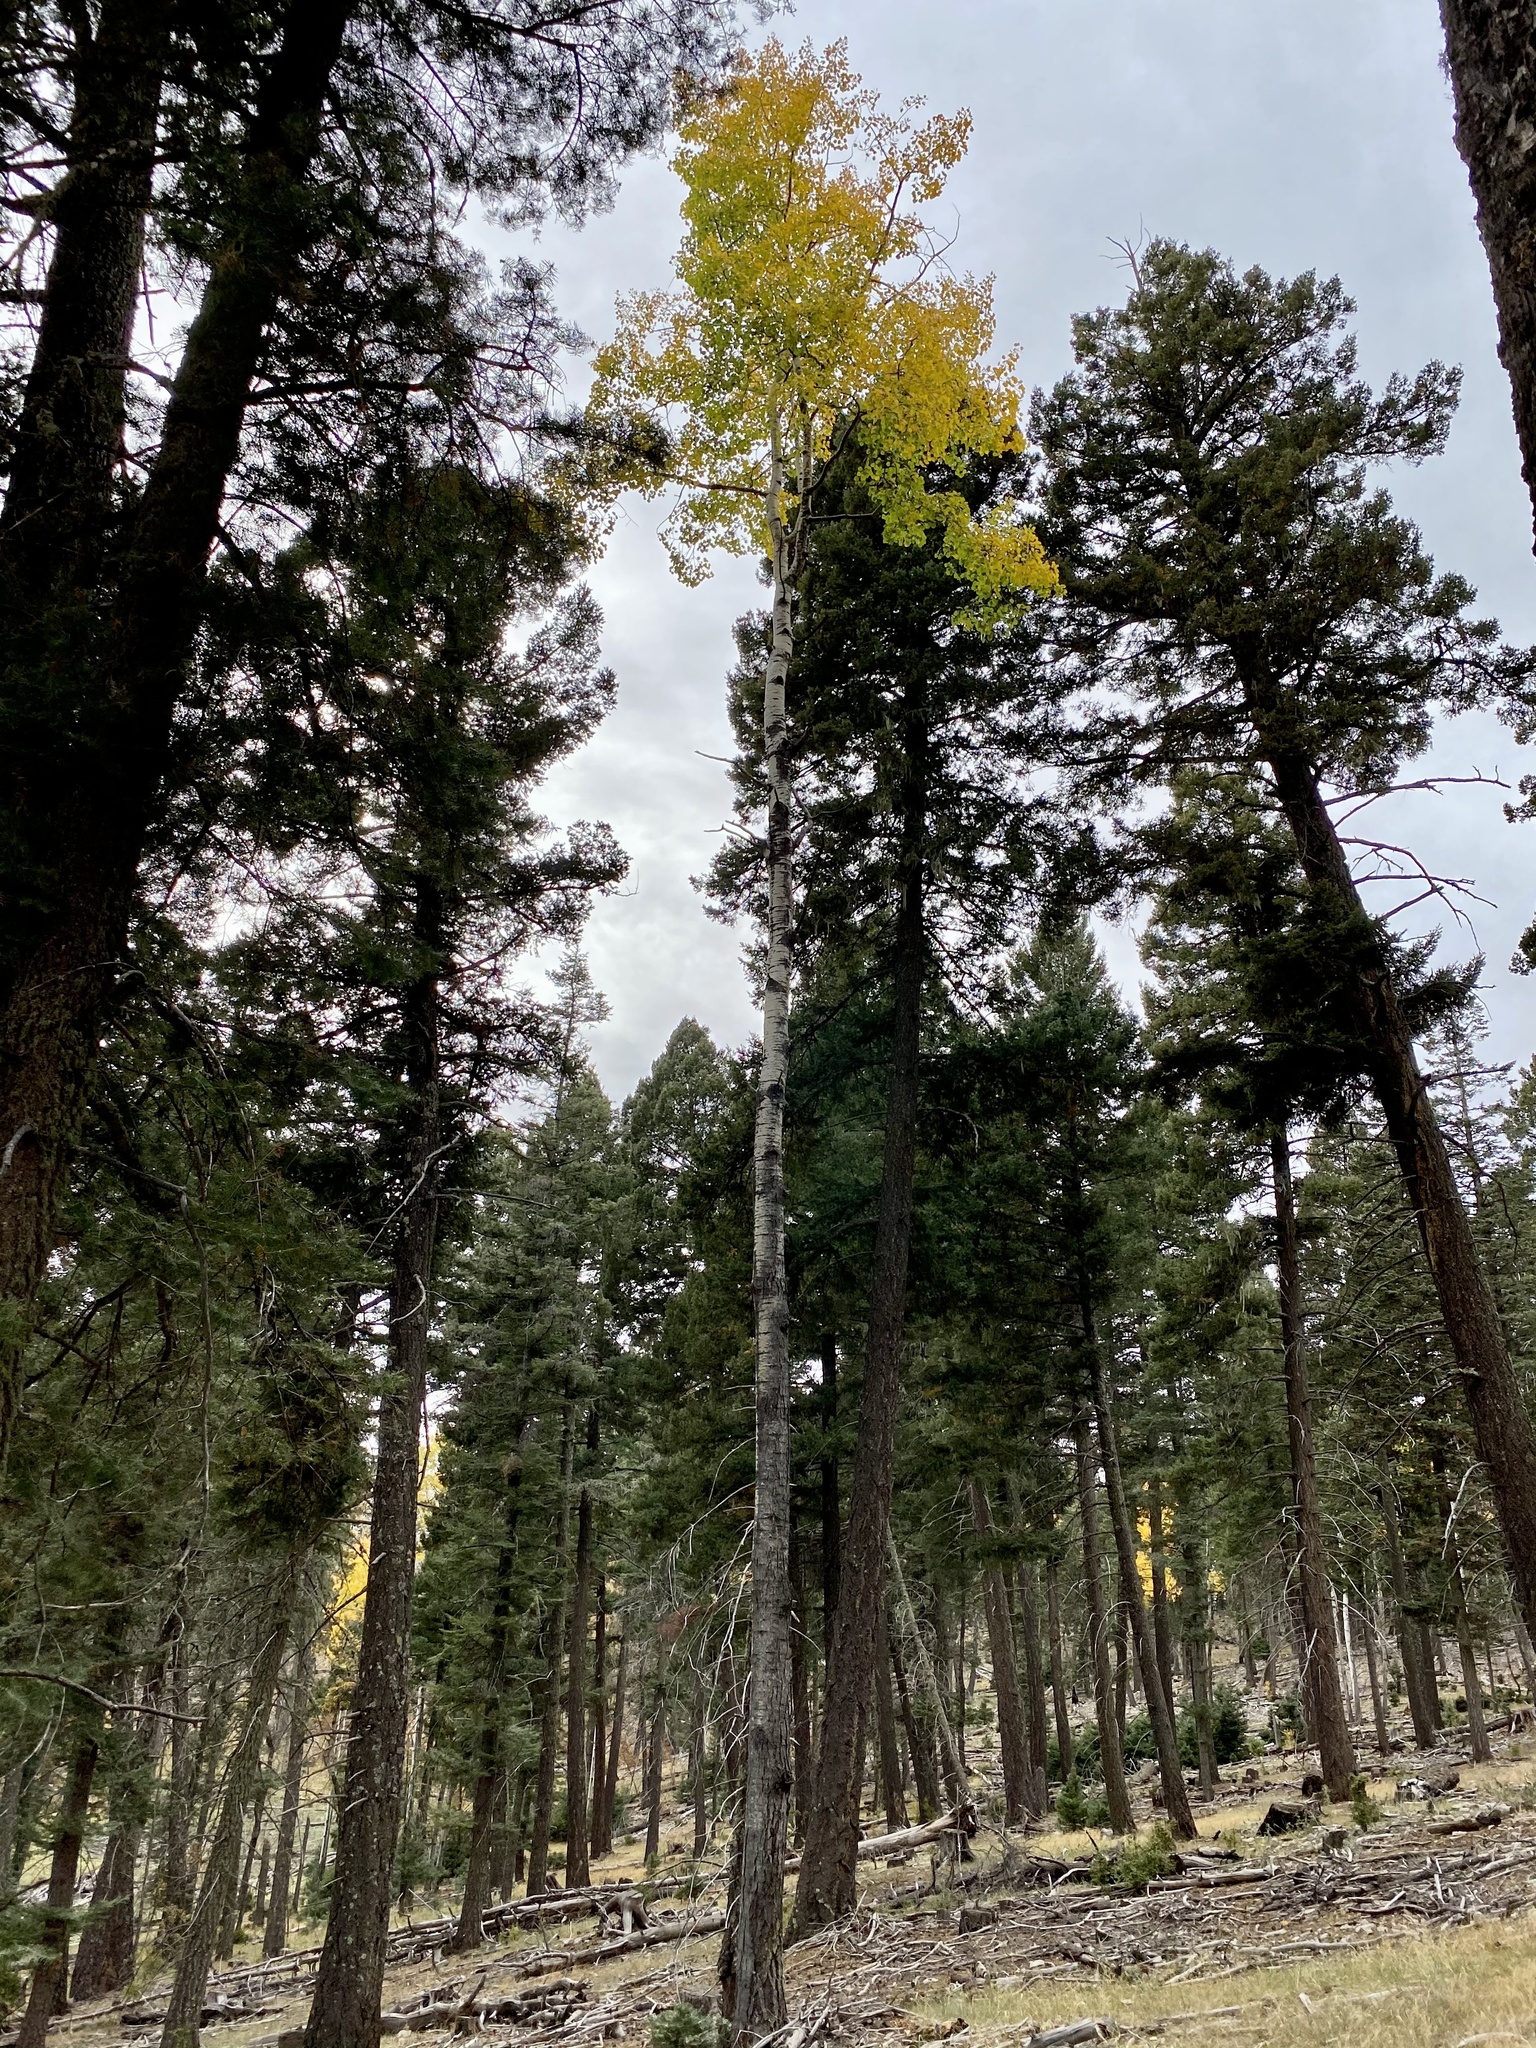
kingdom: Plantae
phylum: Tracheophyta
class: Magnoliopsida
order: Malpighiales
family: Salicaceae
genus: Populus
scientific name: Populus tremuloides
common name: Quaking aspen
